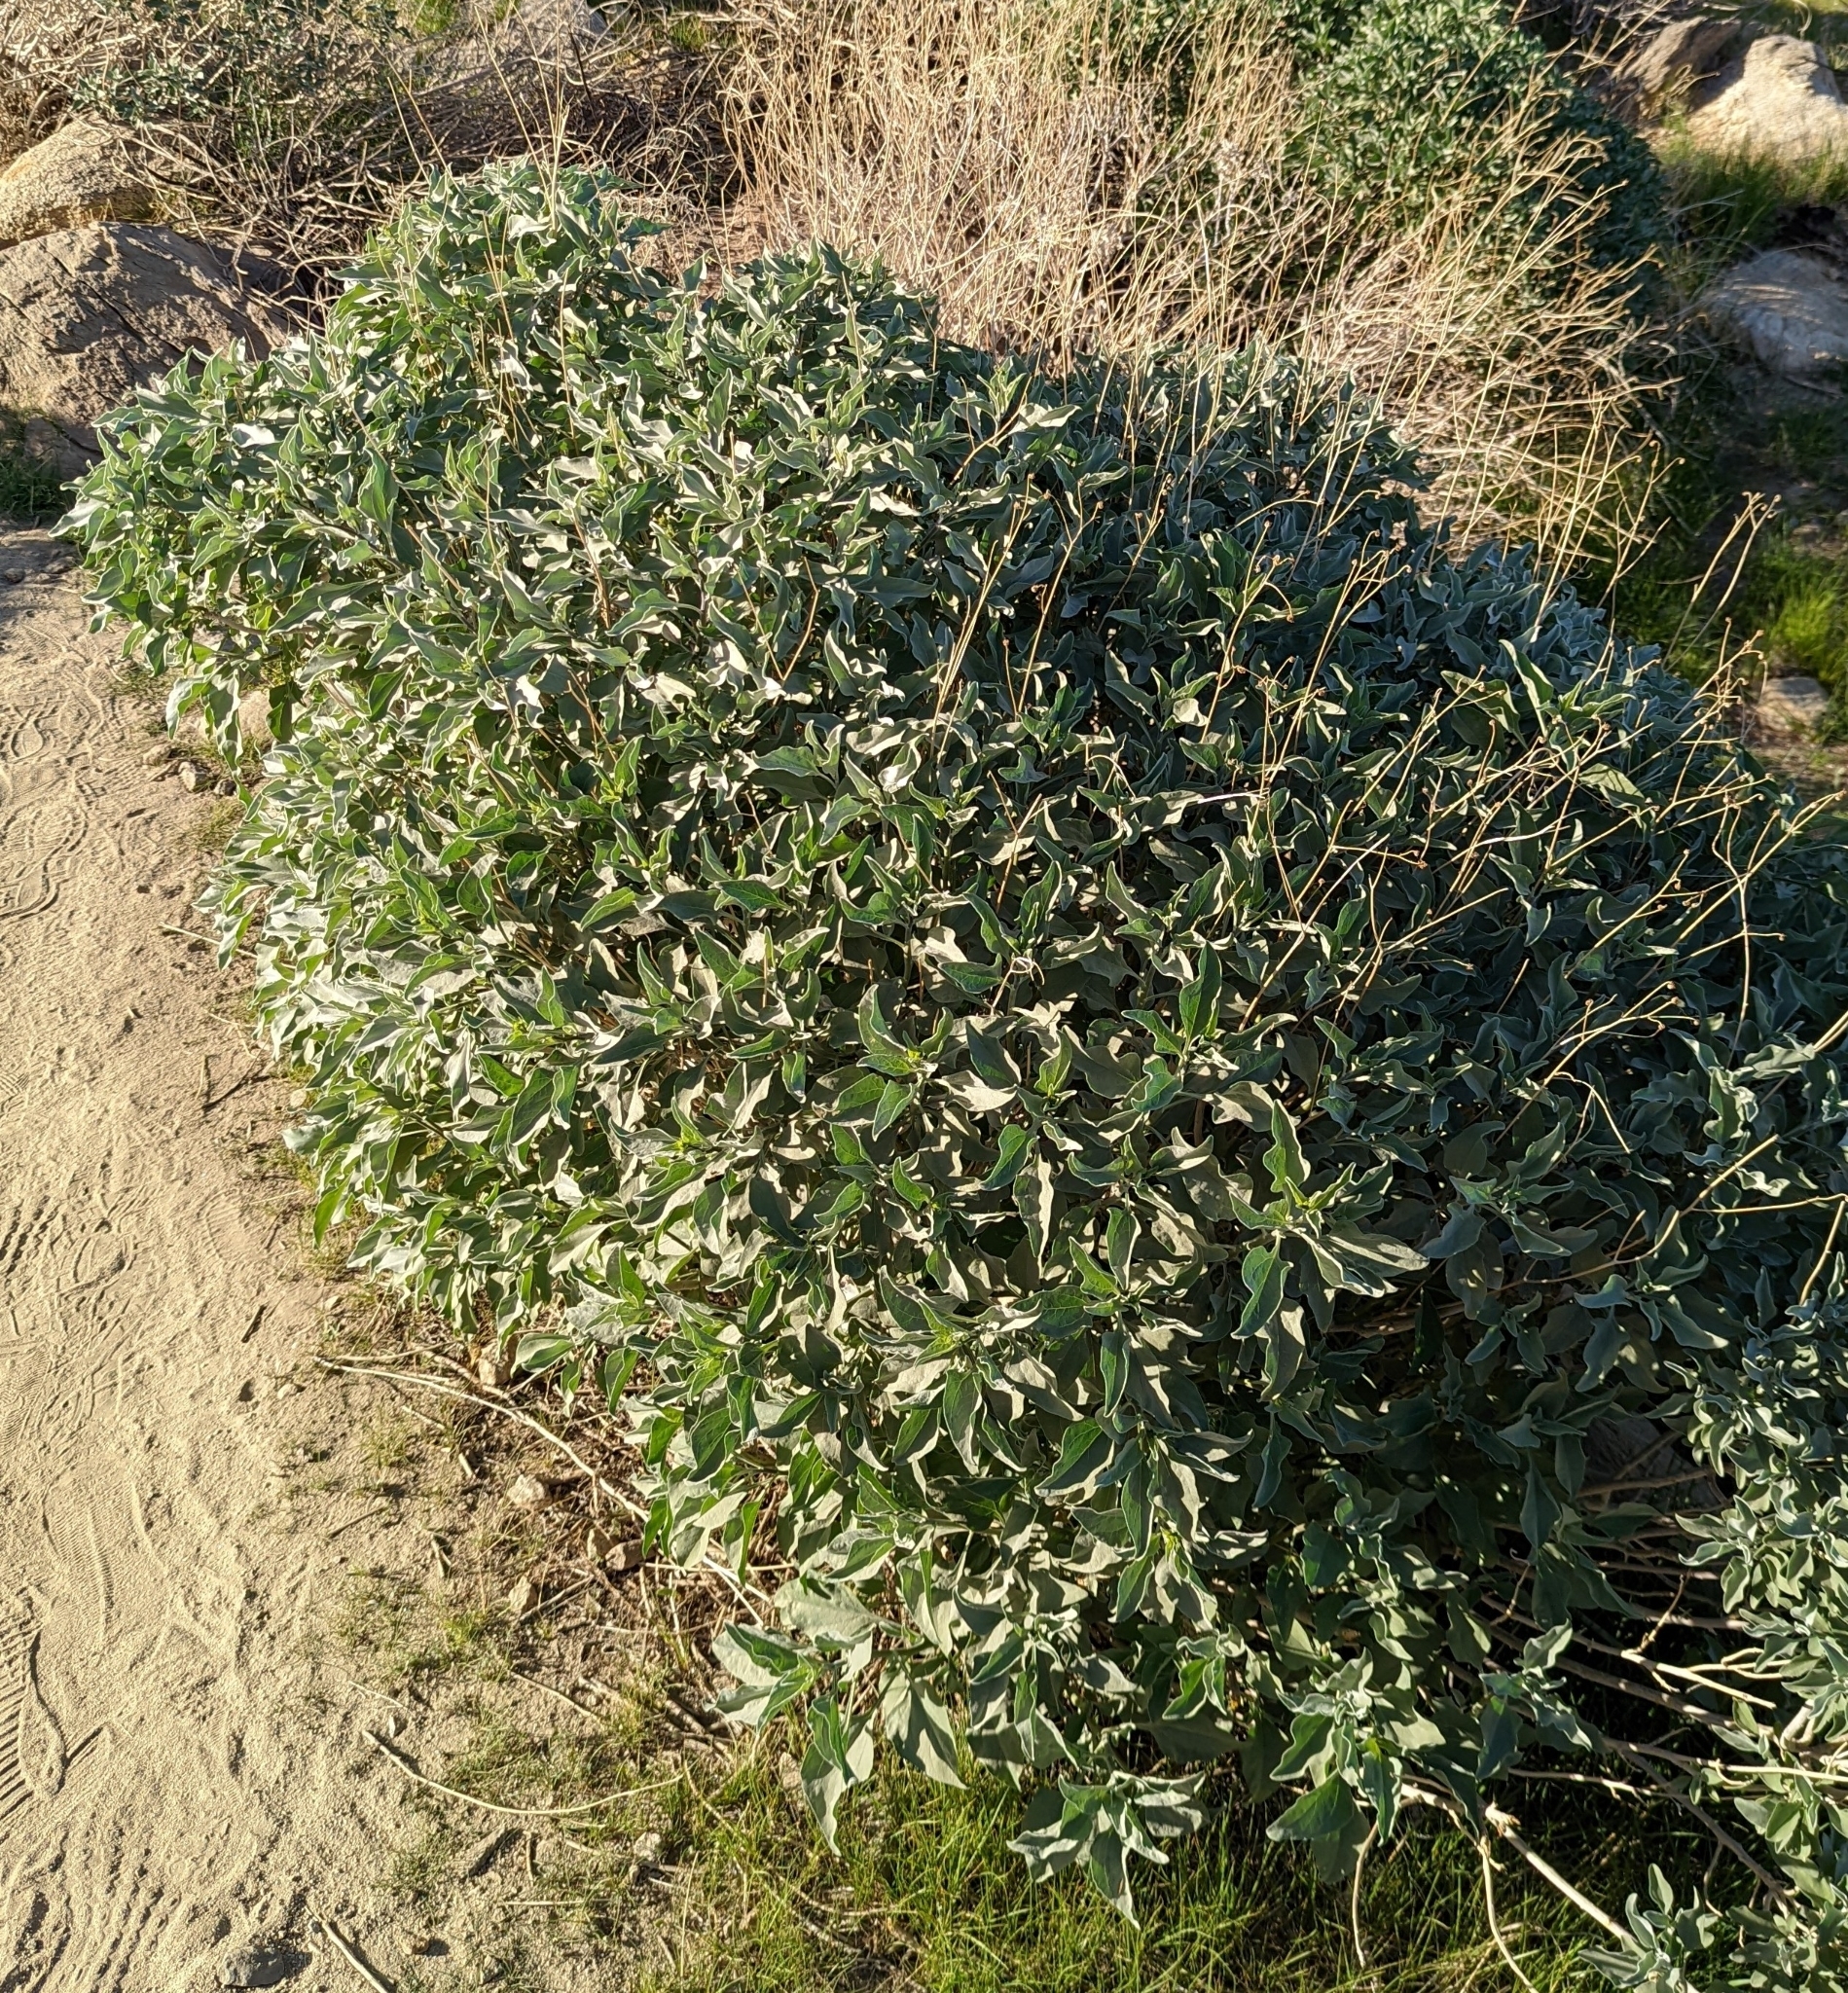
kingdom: Plantae
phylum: Tracheophyta
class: Magnoliopsida
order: Asterales
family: Asteraceae
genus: Encelia
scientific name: Encelia farinosa
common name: Brittlebush
